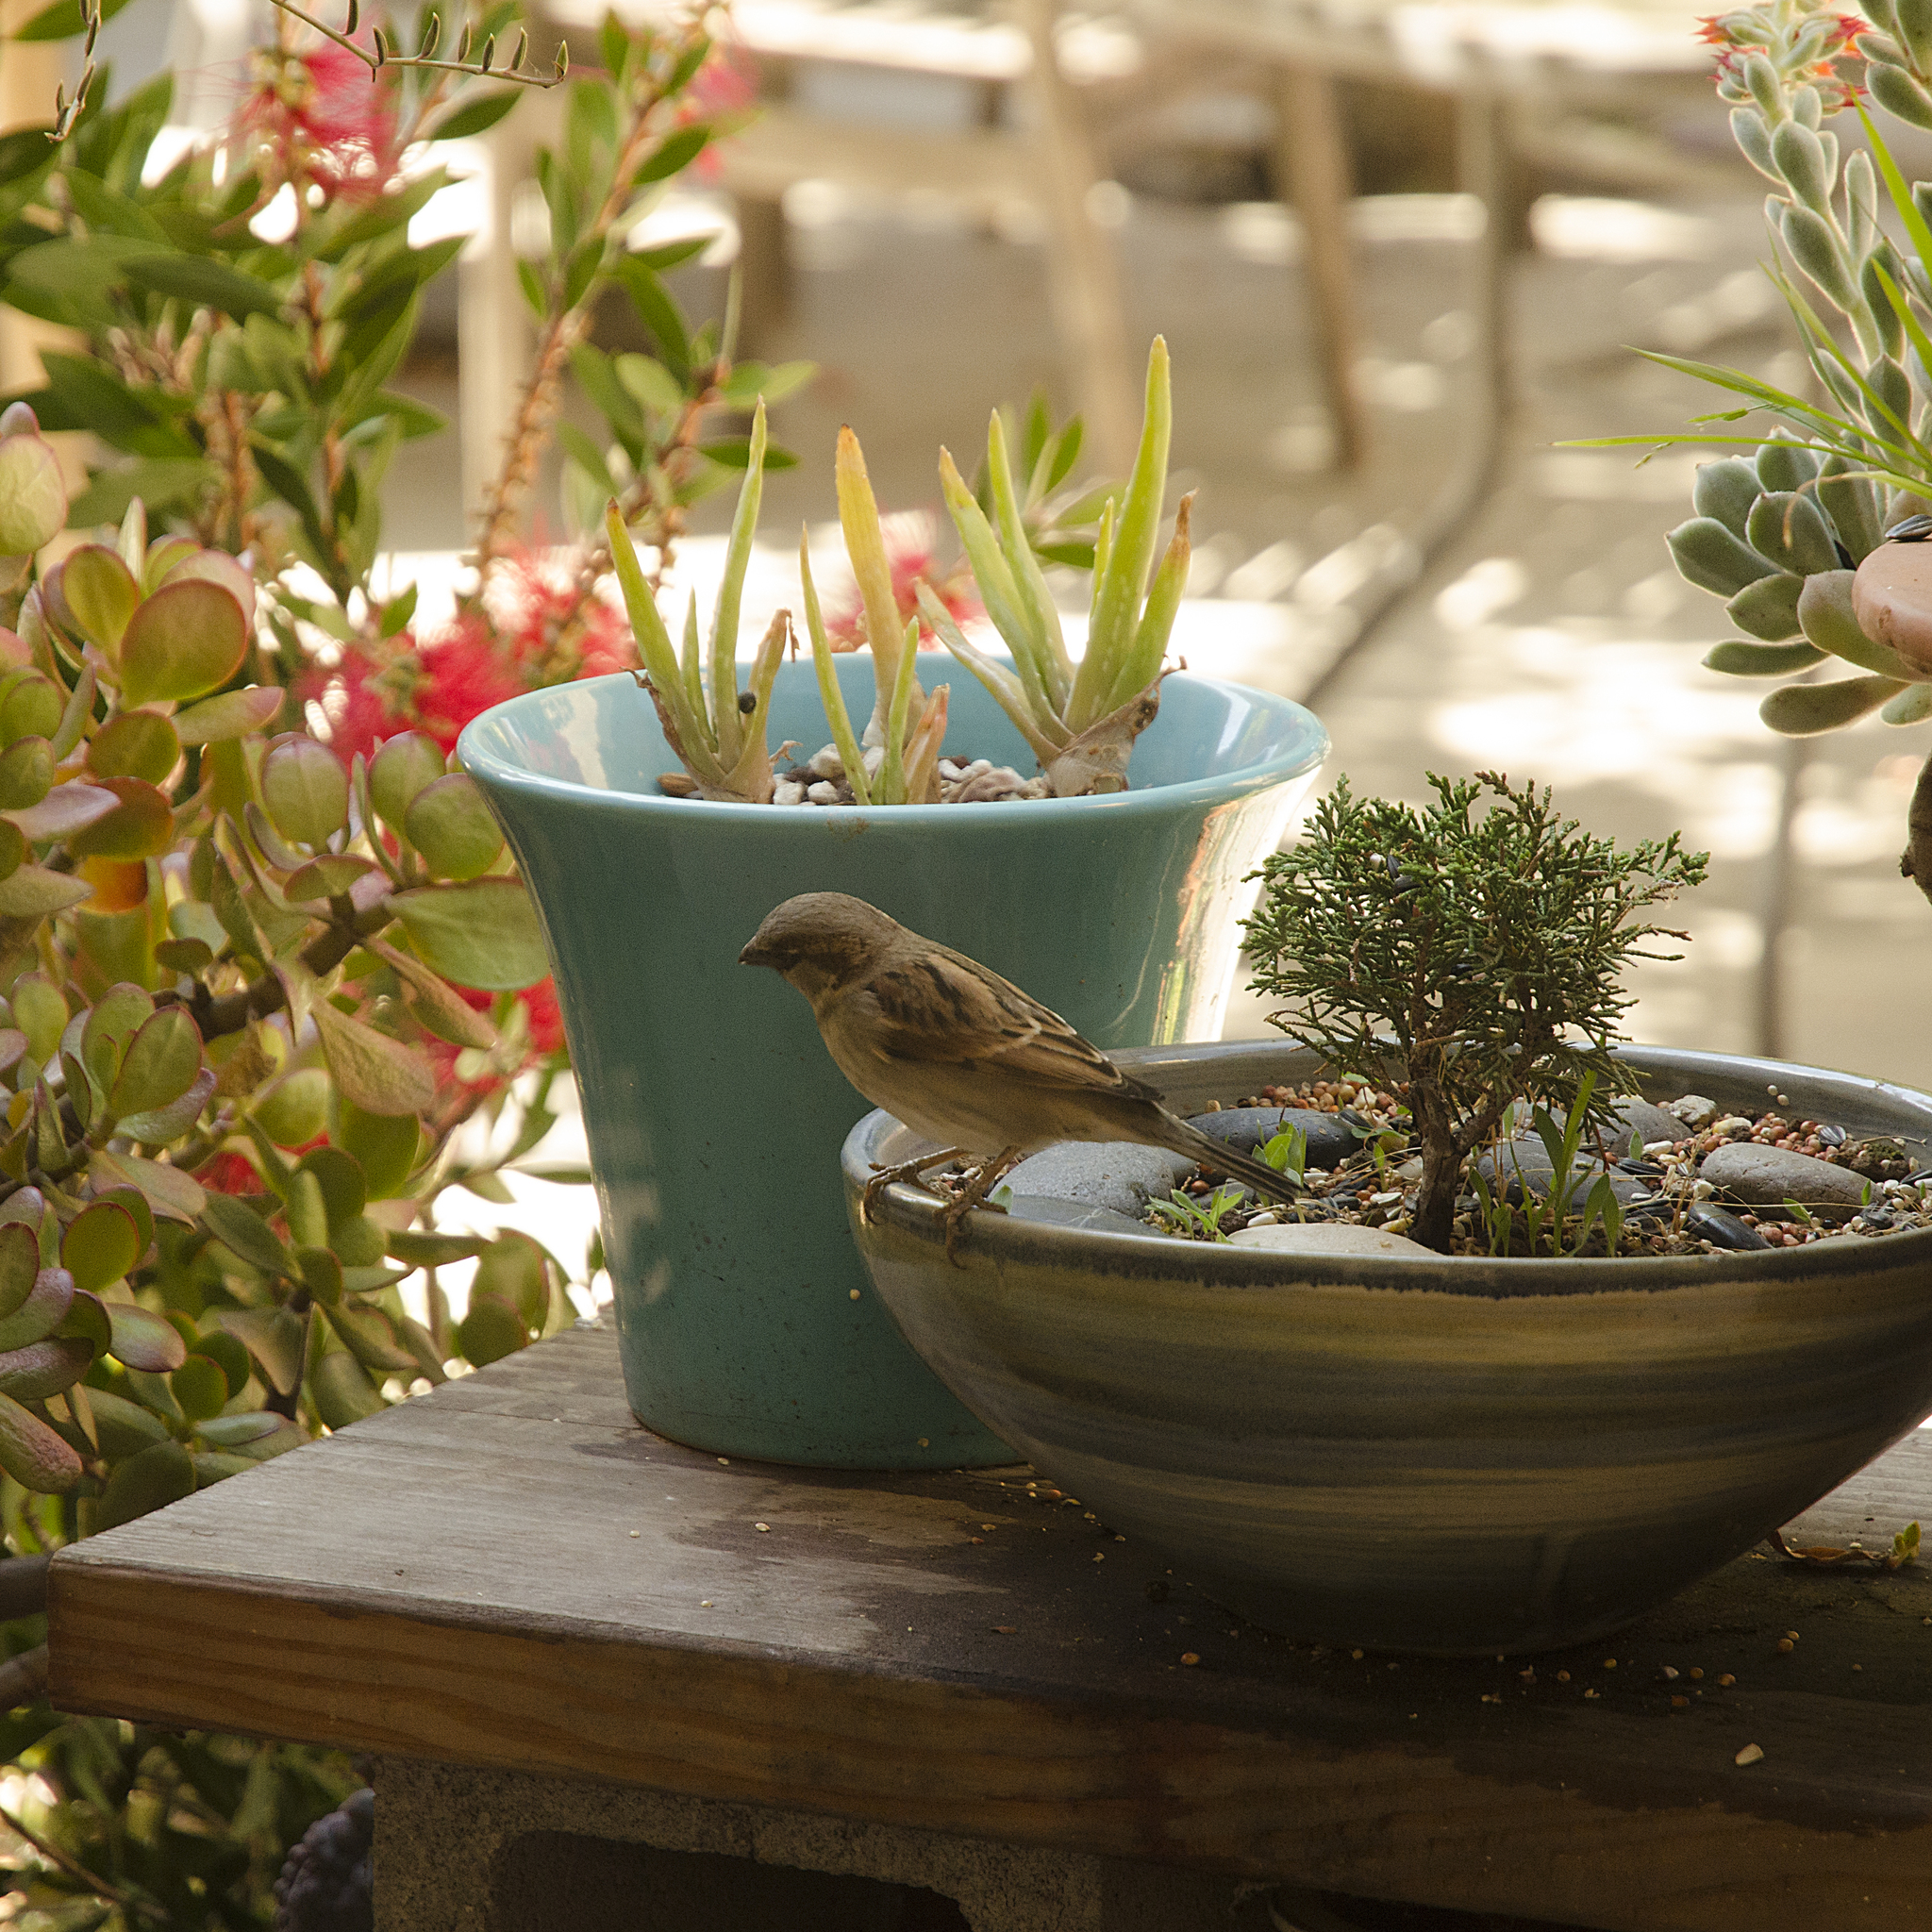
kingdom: Animalia
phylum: Chordata
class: Aves
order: Passeriformes
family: Passeridae
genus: Passer
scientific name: Passer domesticus
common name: House sparrow
